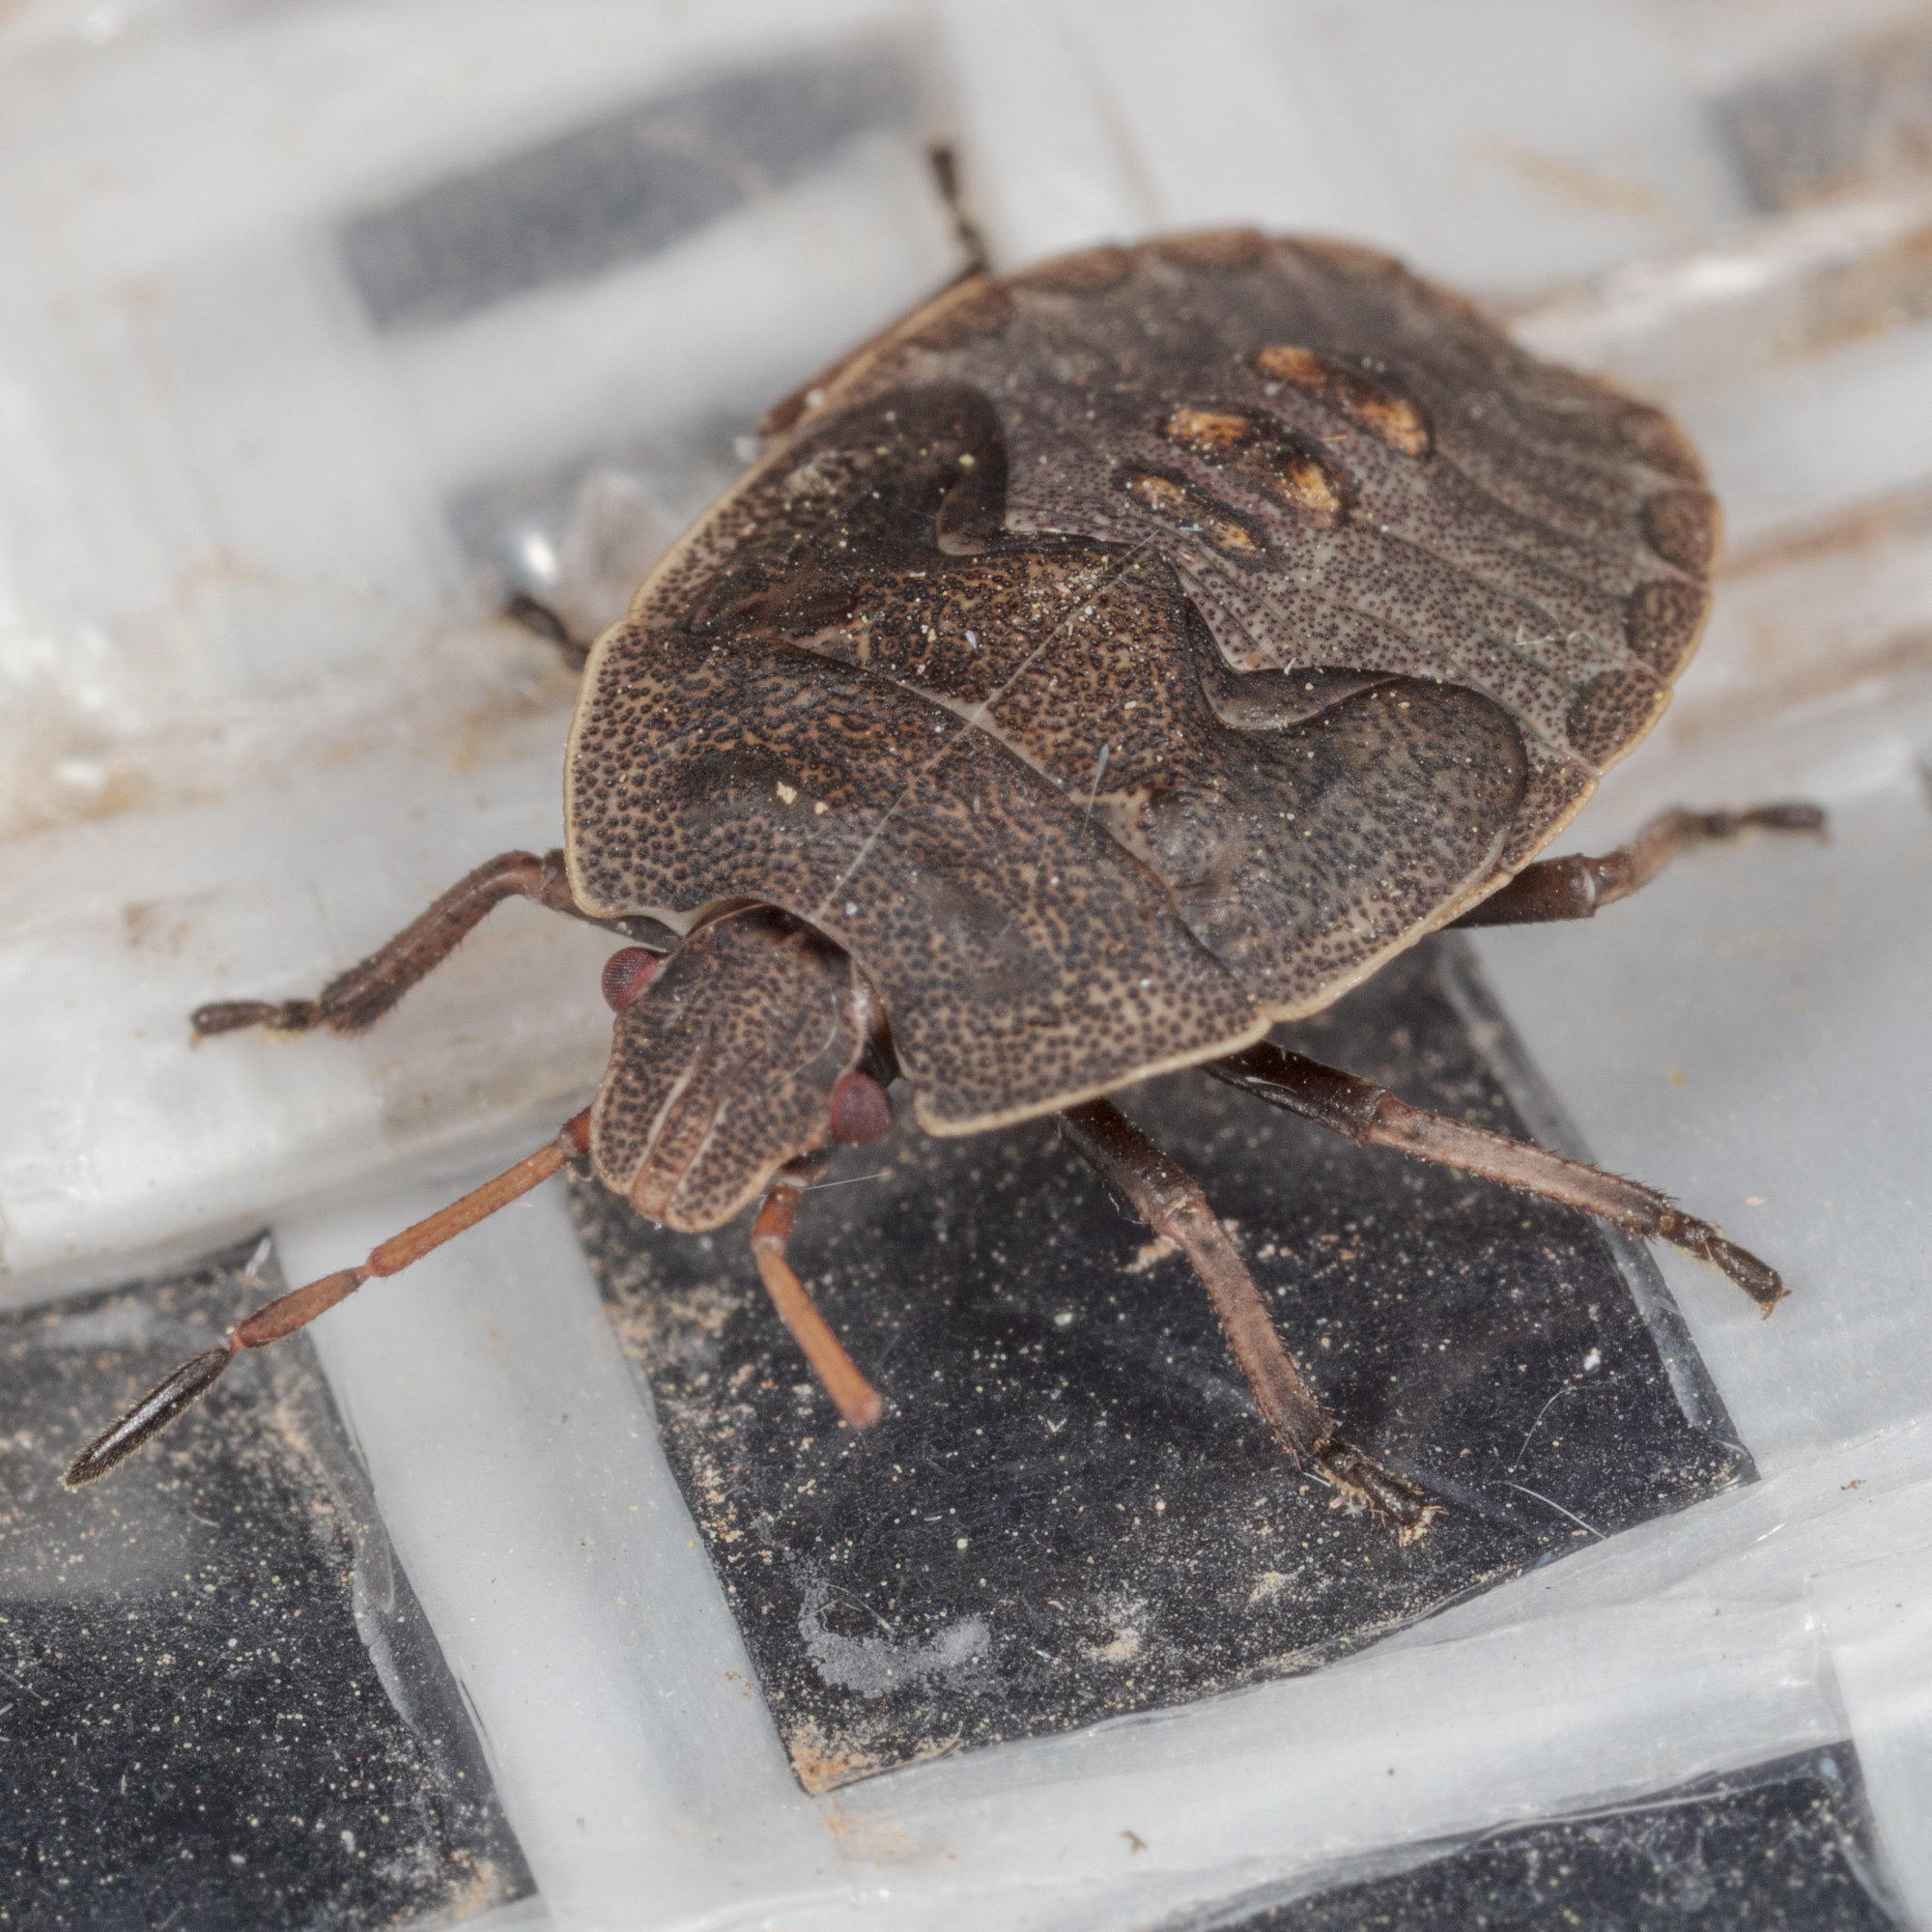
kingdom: Animalia
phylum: Arthropoda
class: Insecta
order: Hemiptera
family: Pentatomidae
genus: Menecles
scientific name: Menecles insertus
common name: Elf shoe stink bug
